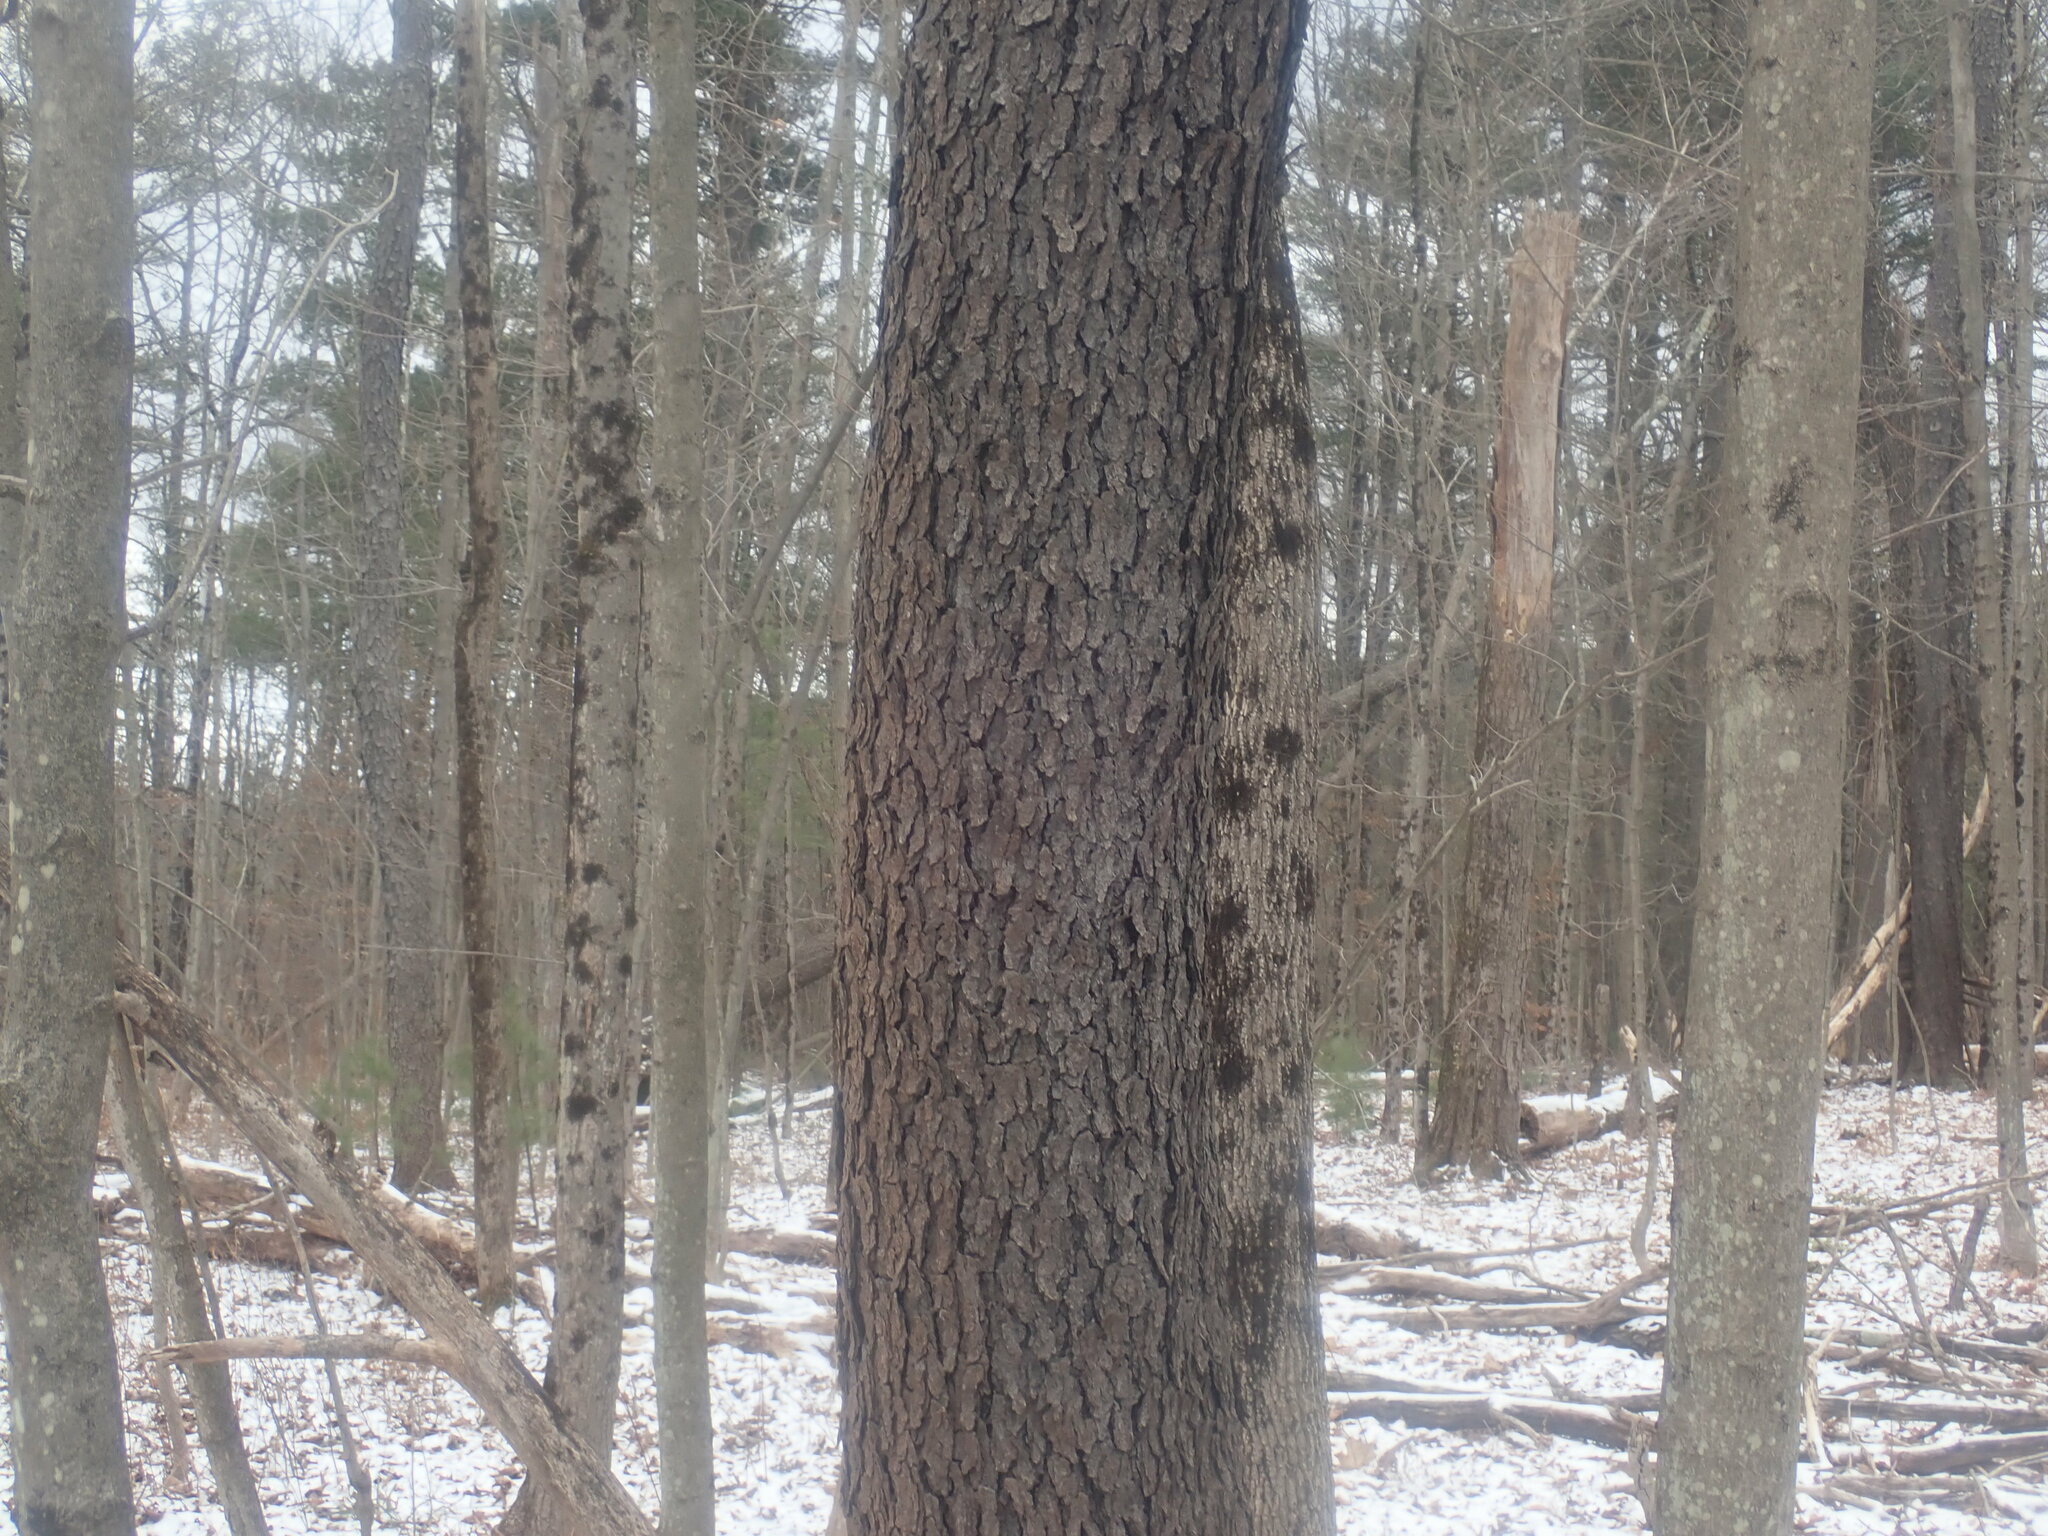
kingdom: Plantae
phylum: Tracheophyta
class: Magnoliopsida
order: Rosales
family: Rosaceae
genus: Prunus
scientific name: Prunus serotina
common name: Black cherry
